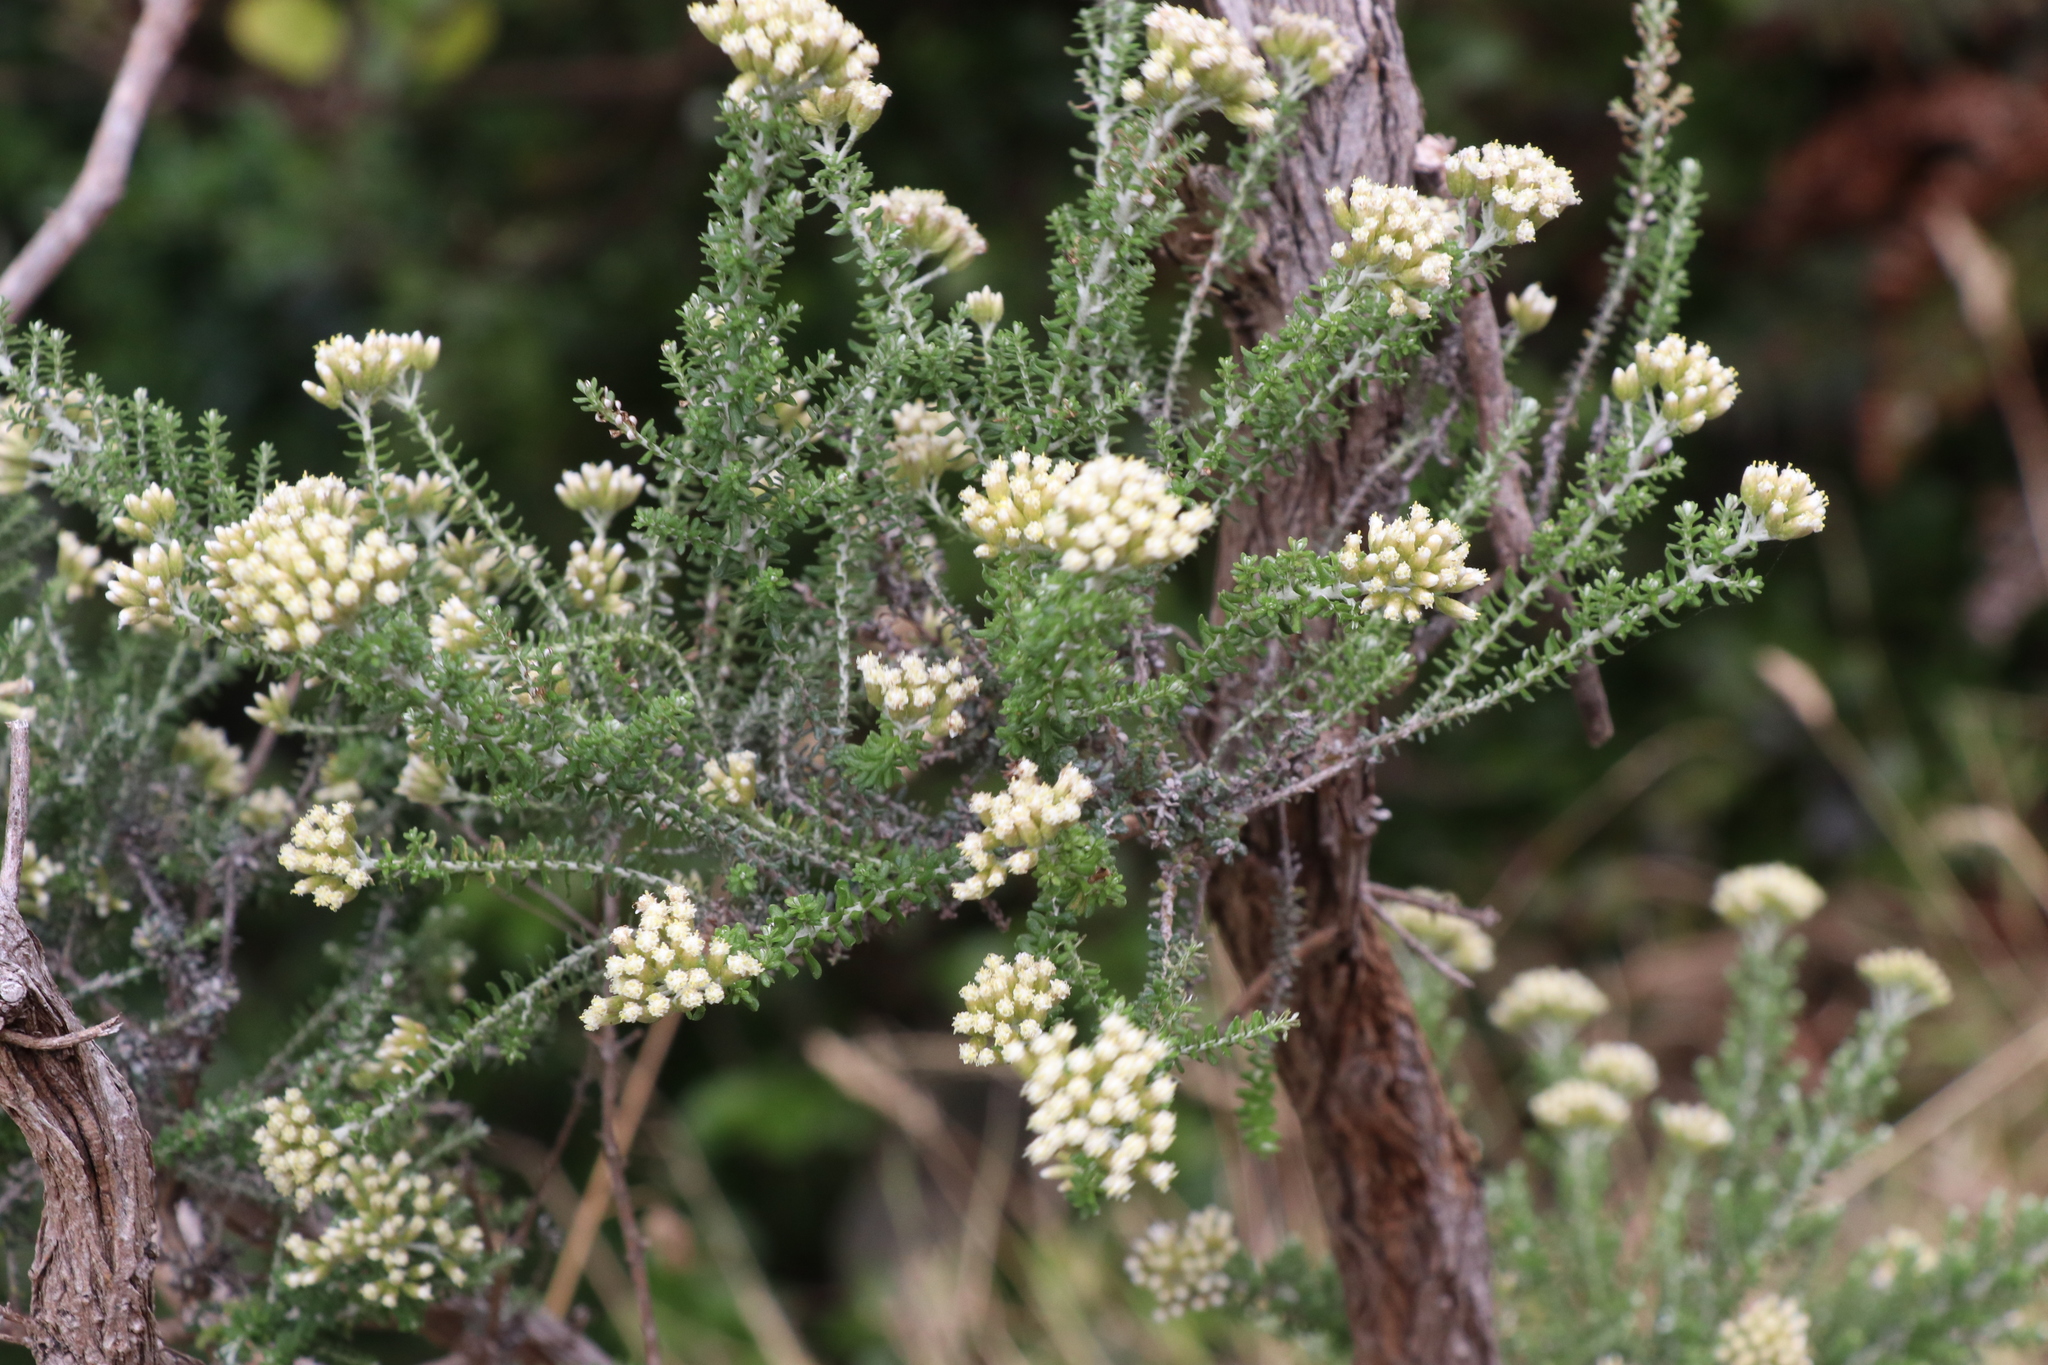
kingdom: Plantae
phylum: Tracheophyta
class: Magnoliopsida
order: Asterales
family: Asteraceae
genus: Ozothamnus
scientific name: Ozothamnus leptophyllus
